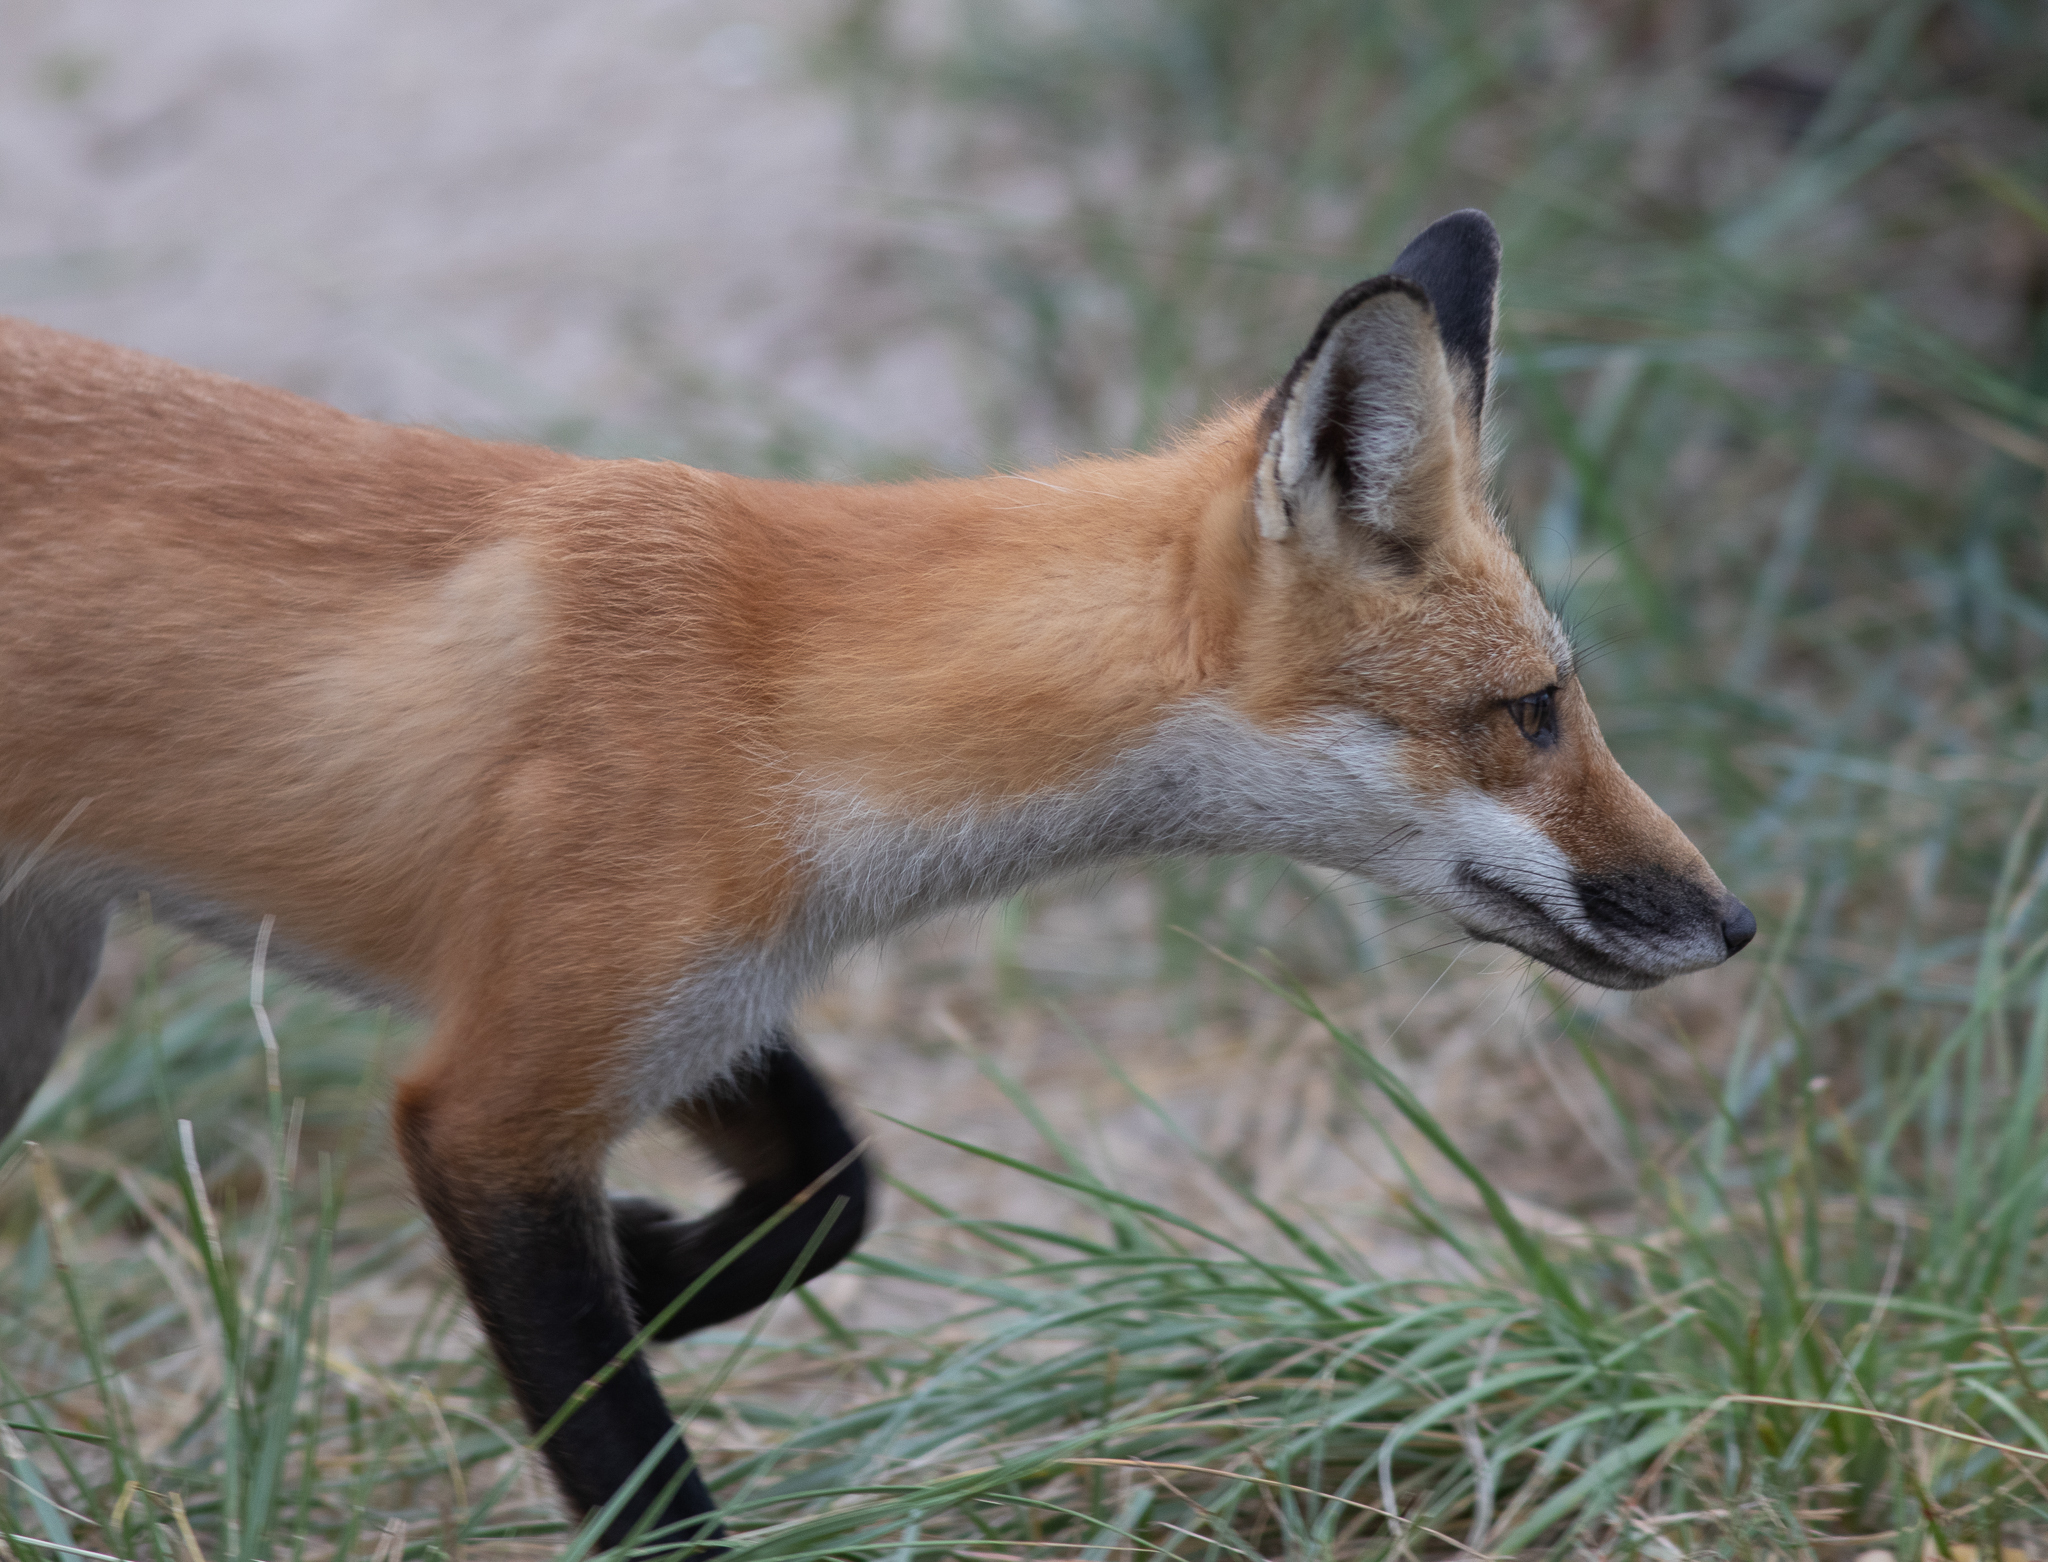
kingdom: Animalia
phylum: Chordata
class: Mammalia
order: Carnivora
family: Canidae
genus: Vulpes
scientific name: Vulpes vulpes
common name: Red fox
